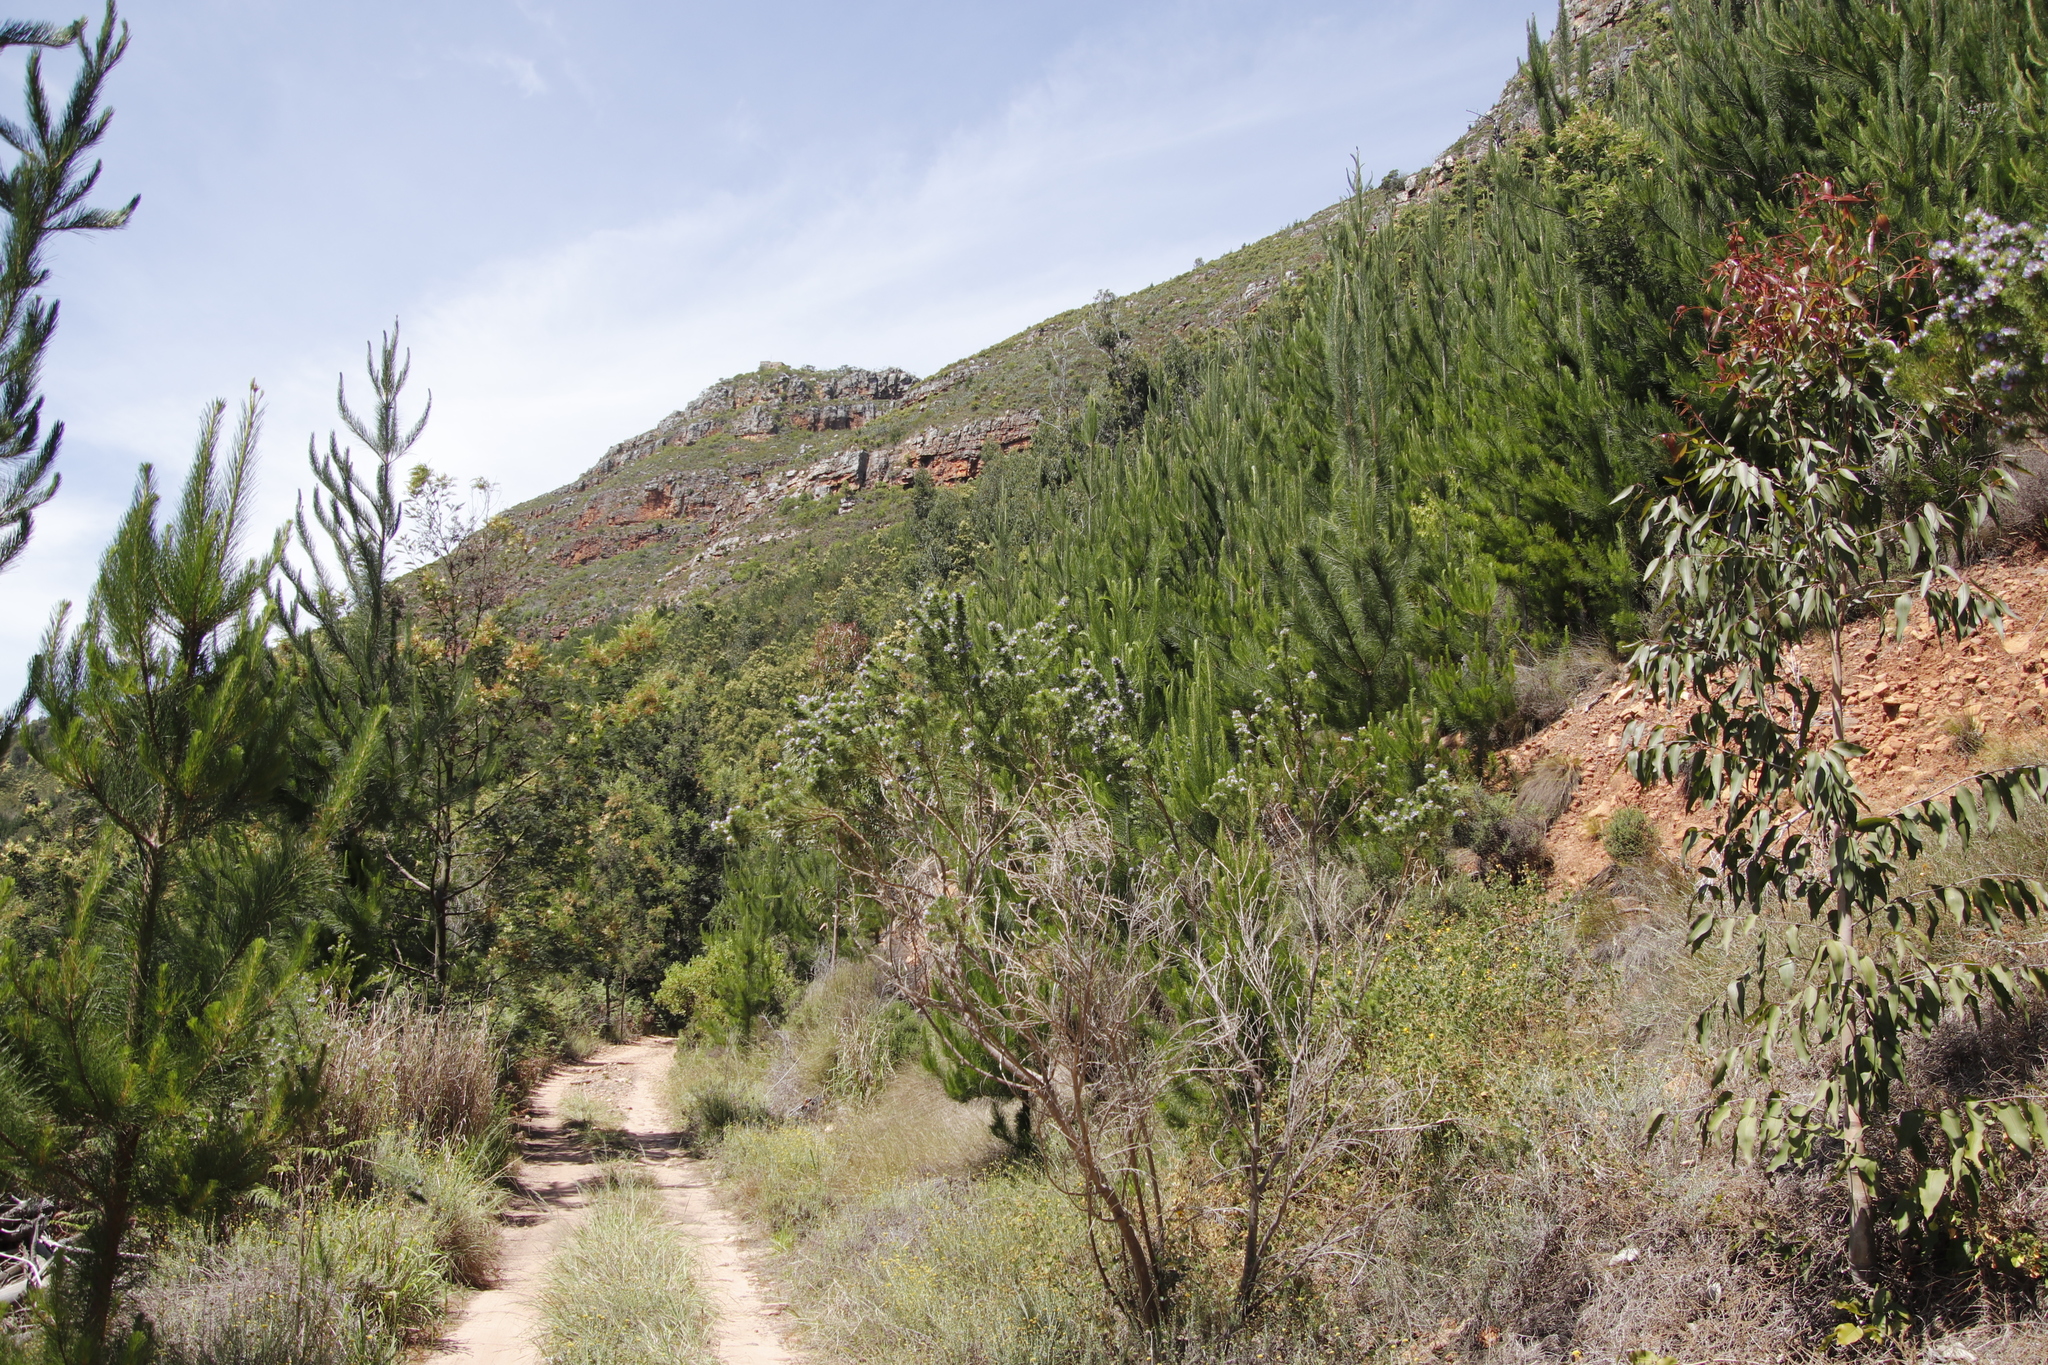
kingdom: Plantae
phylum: Tracheophyta
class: Magnoliopsida
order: Fabales
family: Fabaceae
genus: Psoralea
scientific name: Psoralea pinnata
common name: African scurfpea
